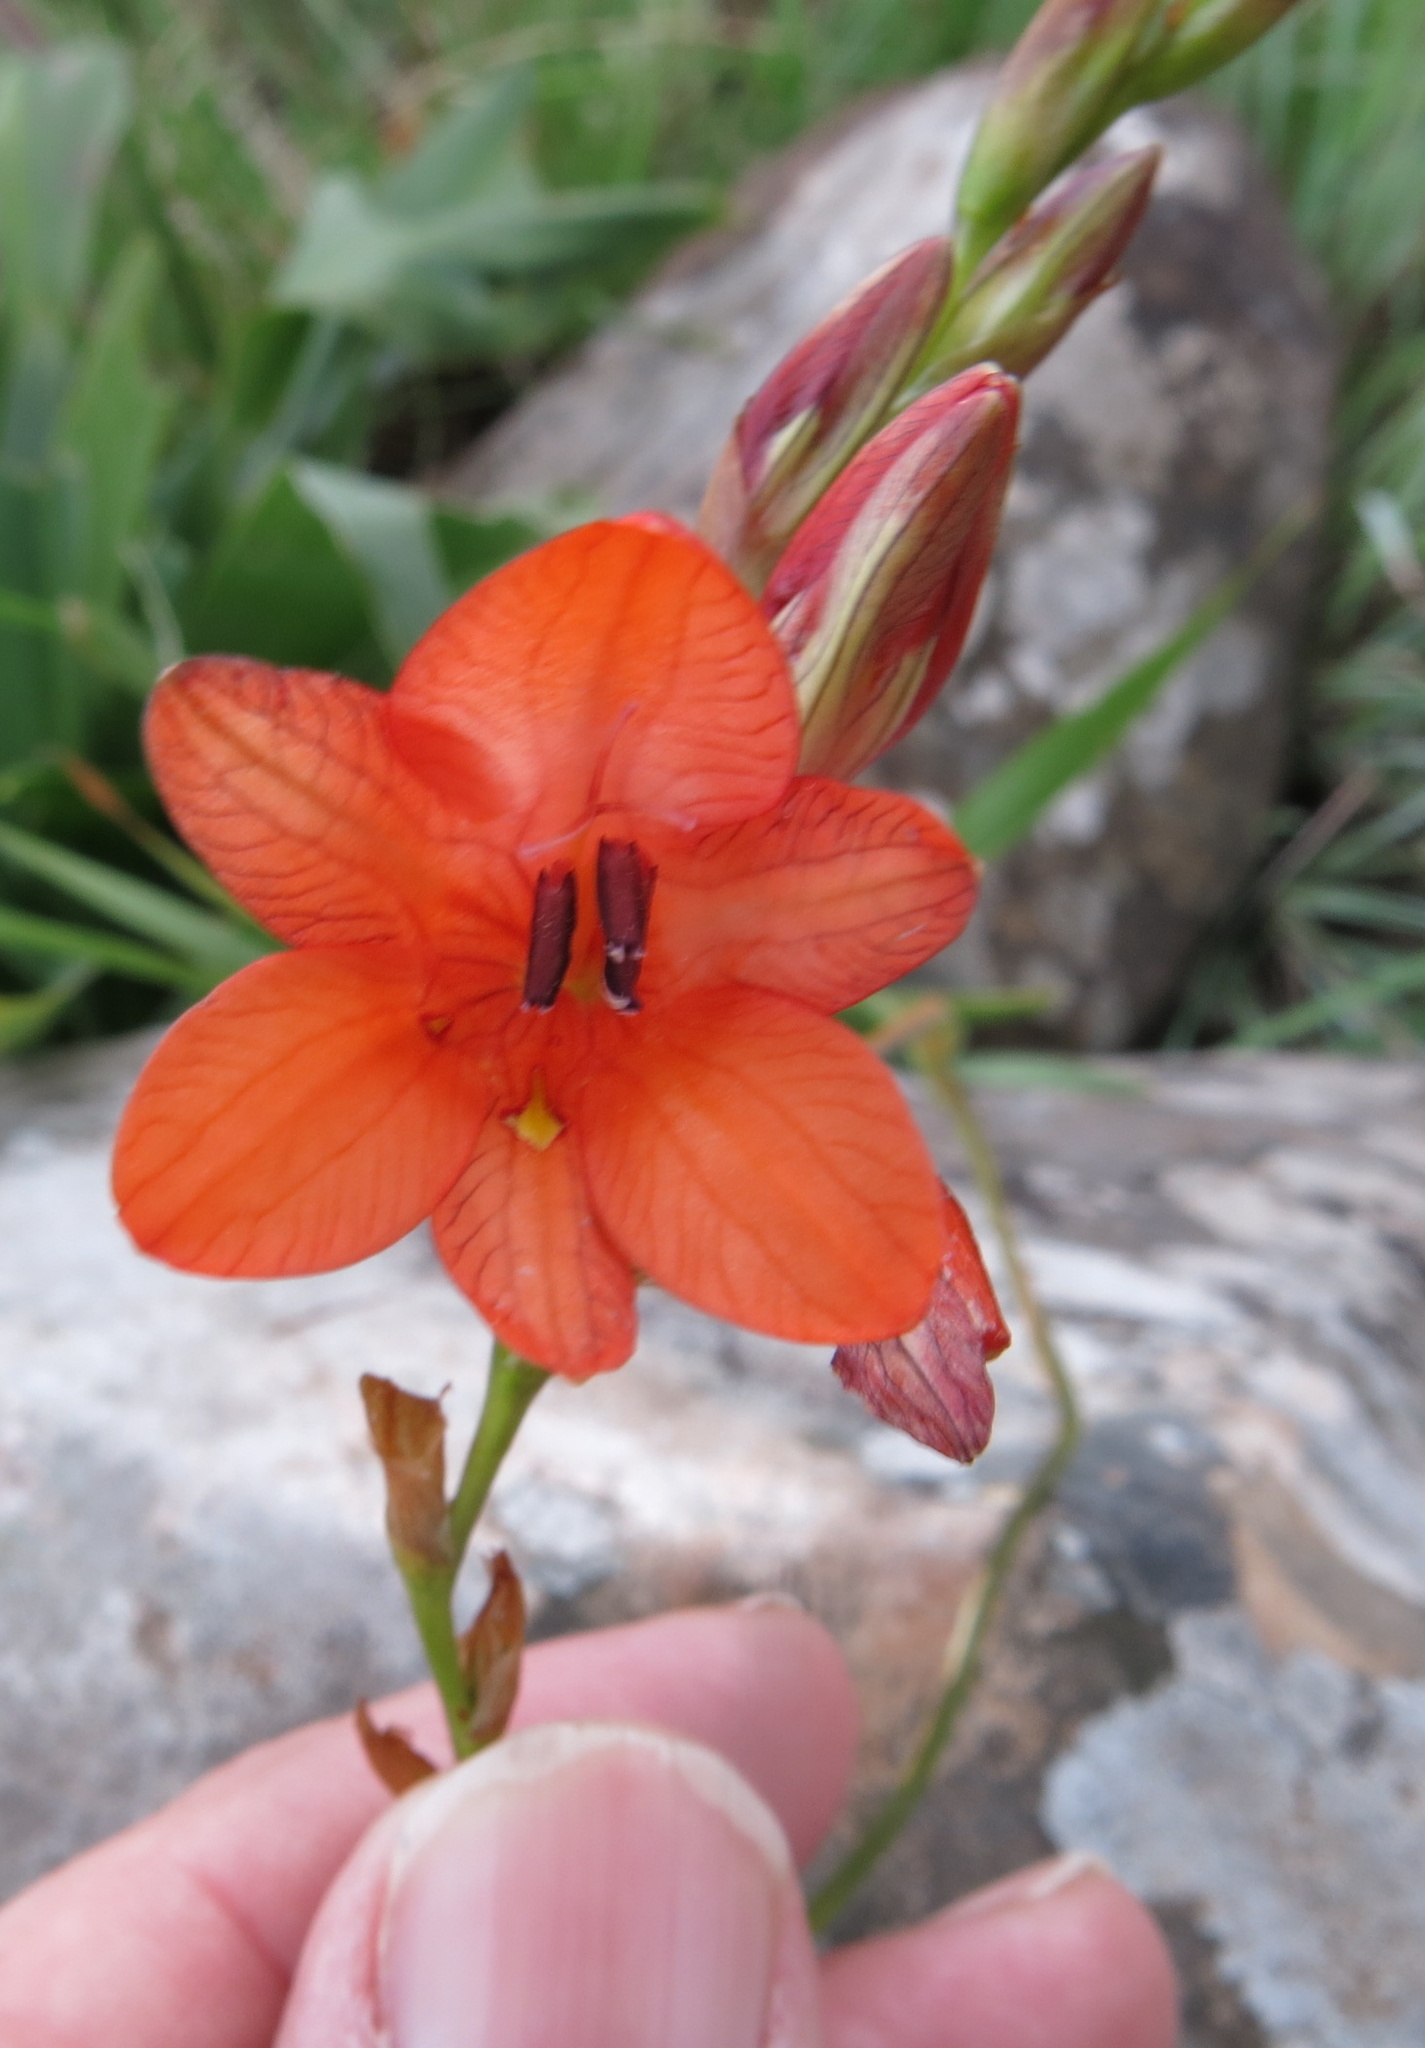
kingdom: Plantae
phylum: Tracheophyta
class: Liliopsida
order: Asparagales
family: Iridaceae
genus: Tritonia
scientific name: Tritonia disticha
